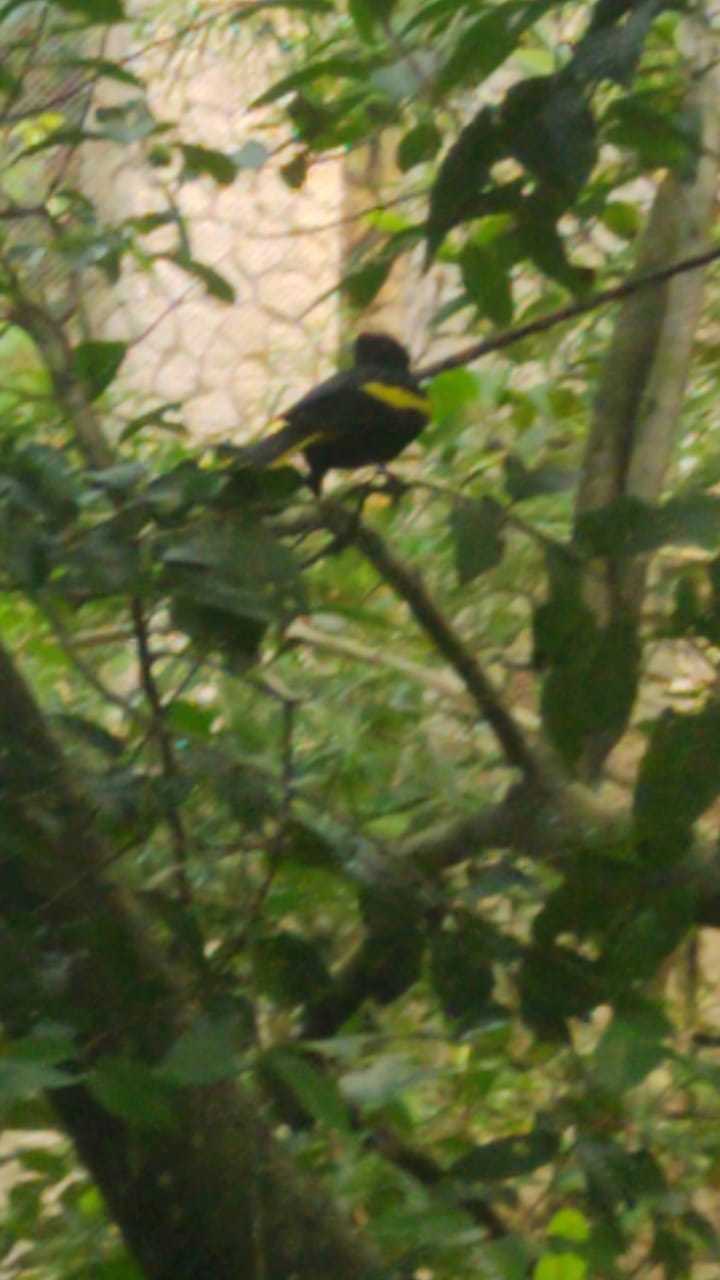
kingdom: Animalia
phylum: Chordata
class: Aves
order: Passeriformes
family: Icteridae
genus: Cacicus
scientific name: Cacicus melanicterus
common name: Yellow-winged cacique
